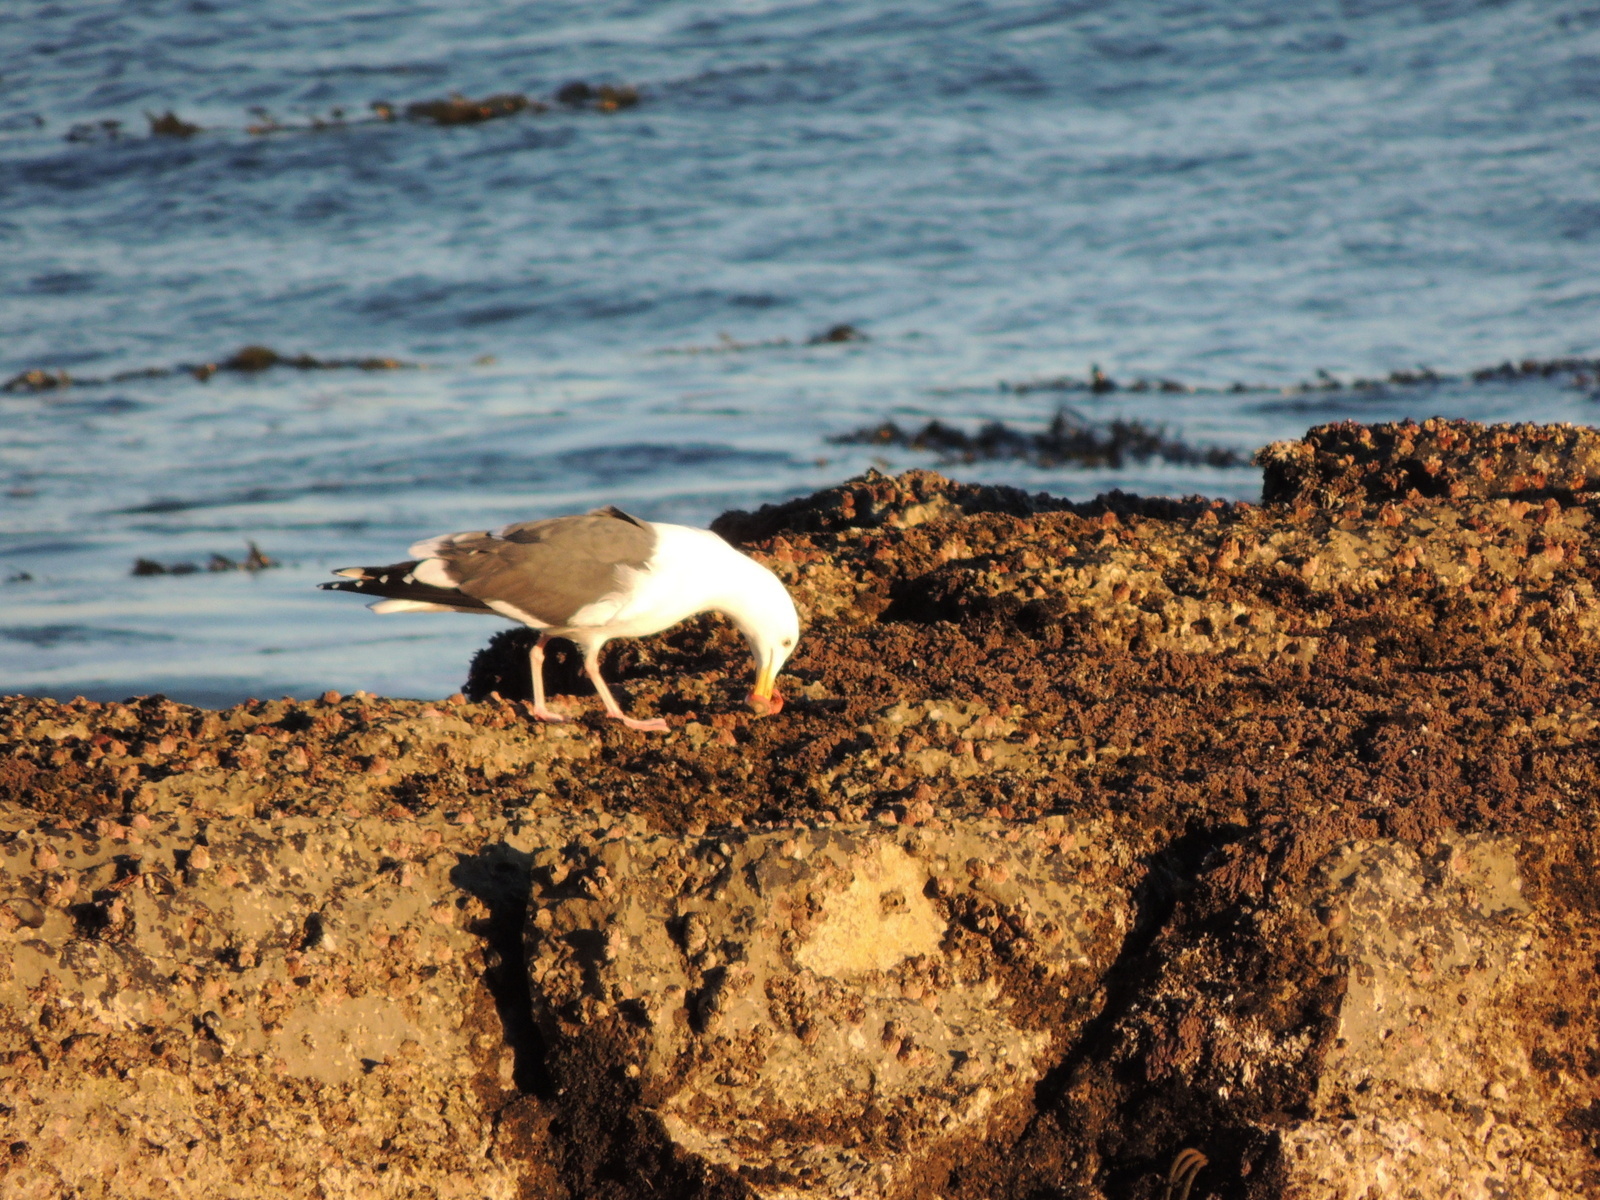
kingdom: Animalia
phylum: Chordata
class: Aves
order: Charadriiformes
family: Laridae
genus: Larus
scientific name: Larus occidentalis
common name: Western gull
